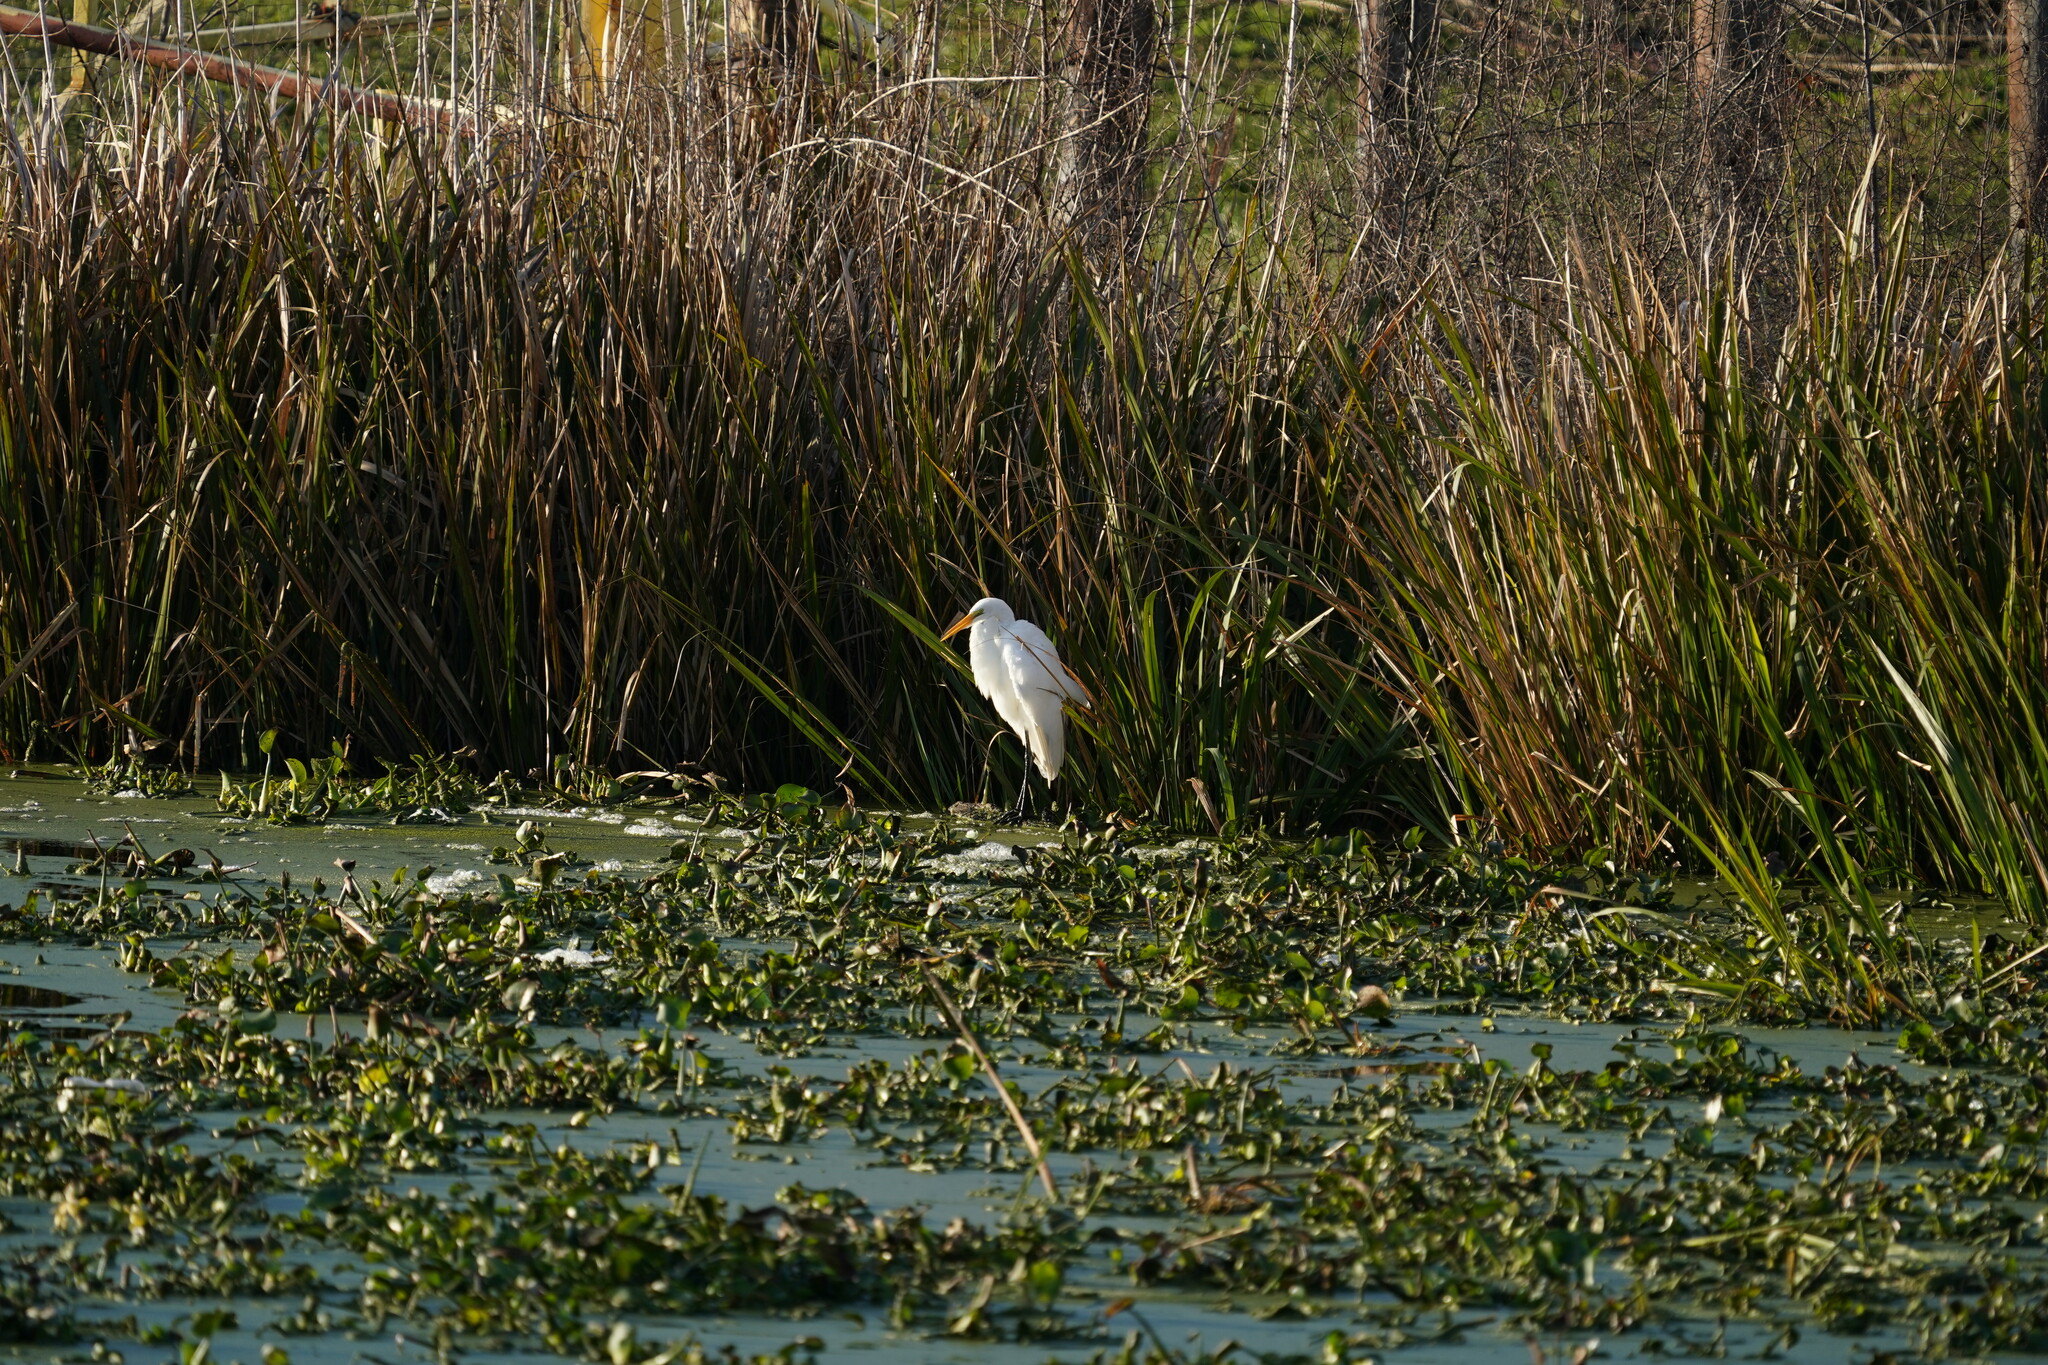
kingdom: Animalia
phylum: Chordata
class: Aves
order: Pelecaniformes
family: Ardeidae
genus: Ardea
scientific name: Ardea alba
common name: Great egret
